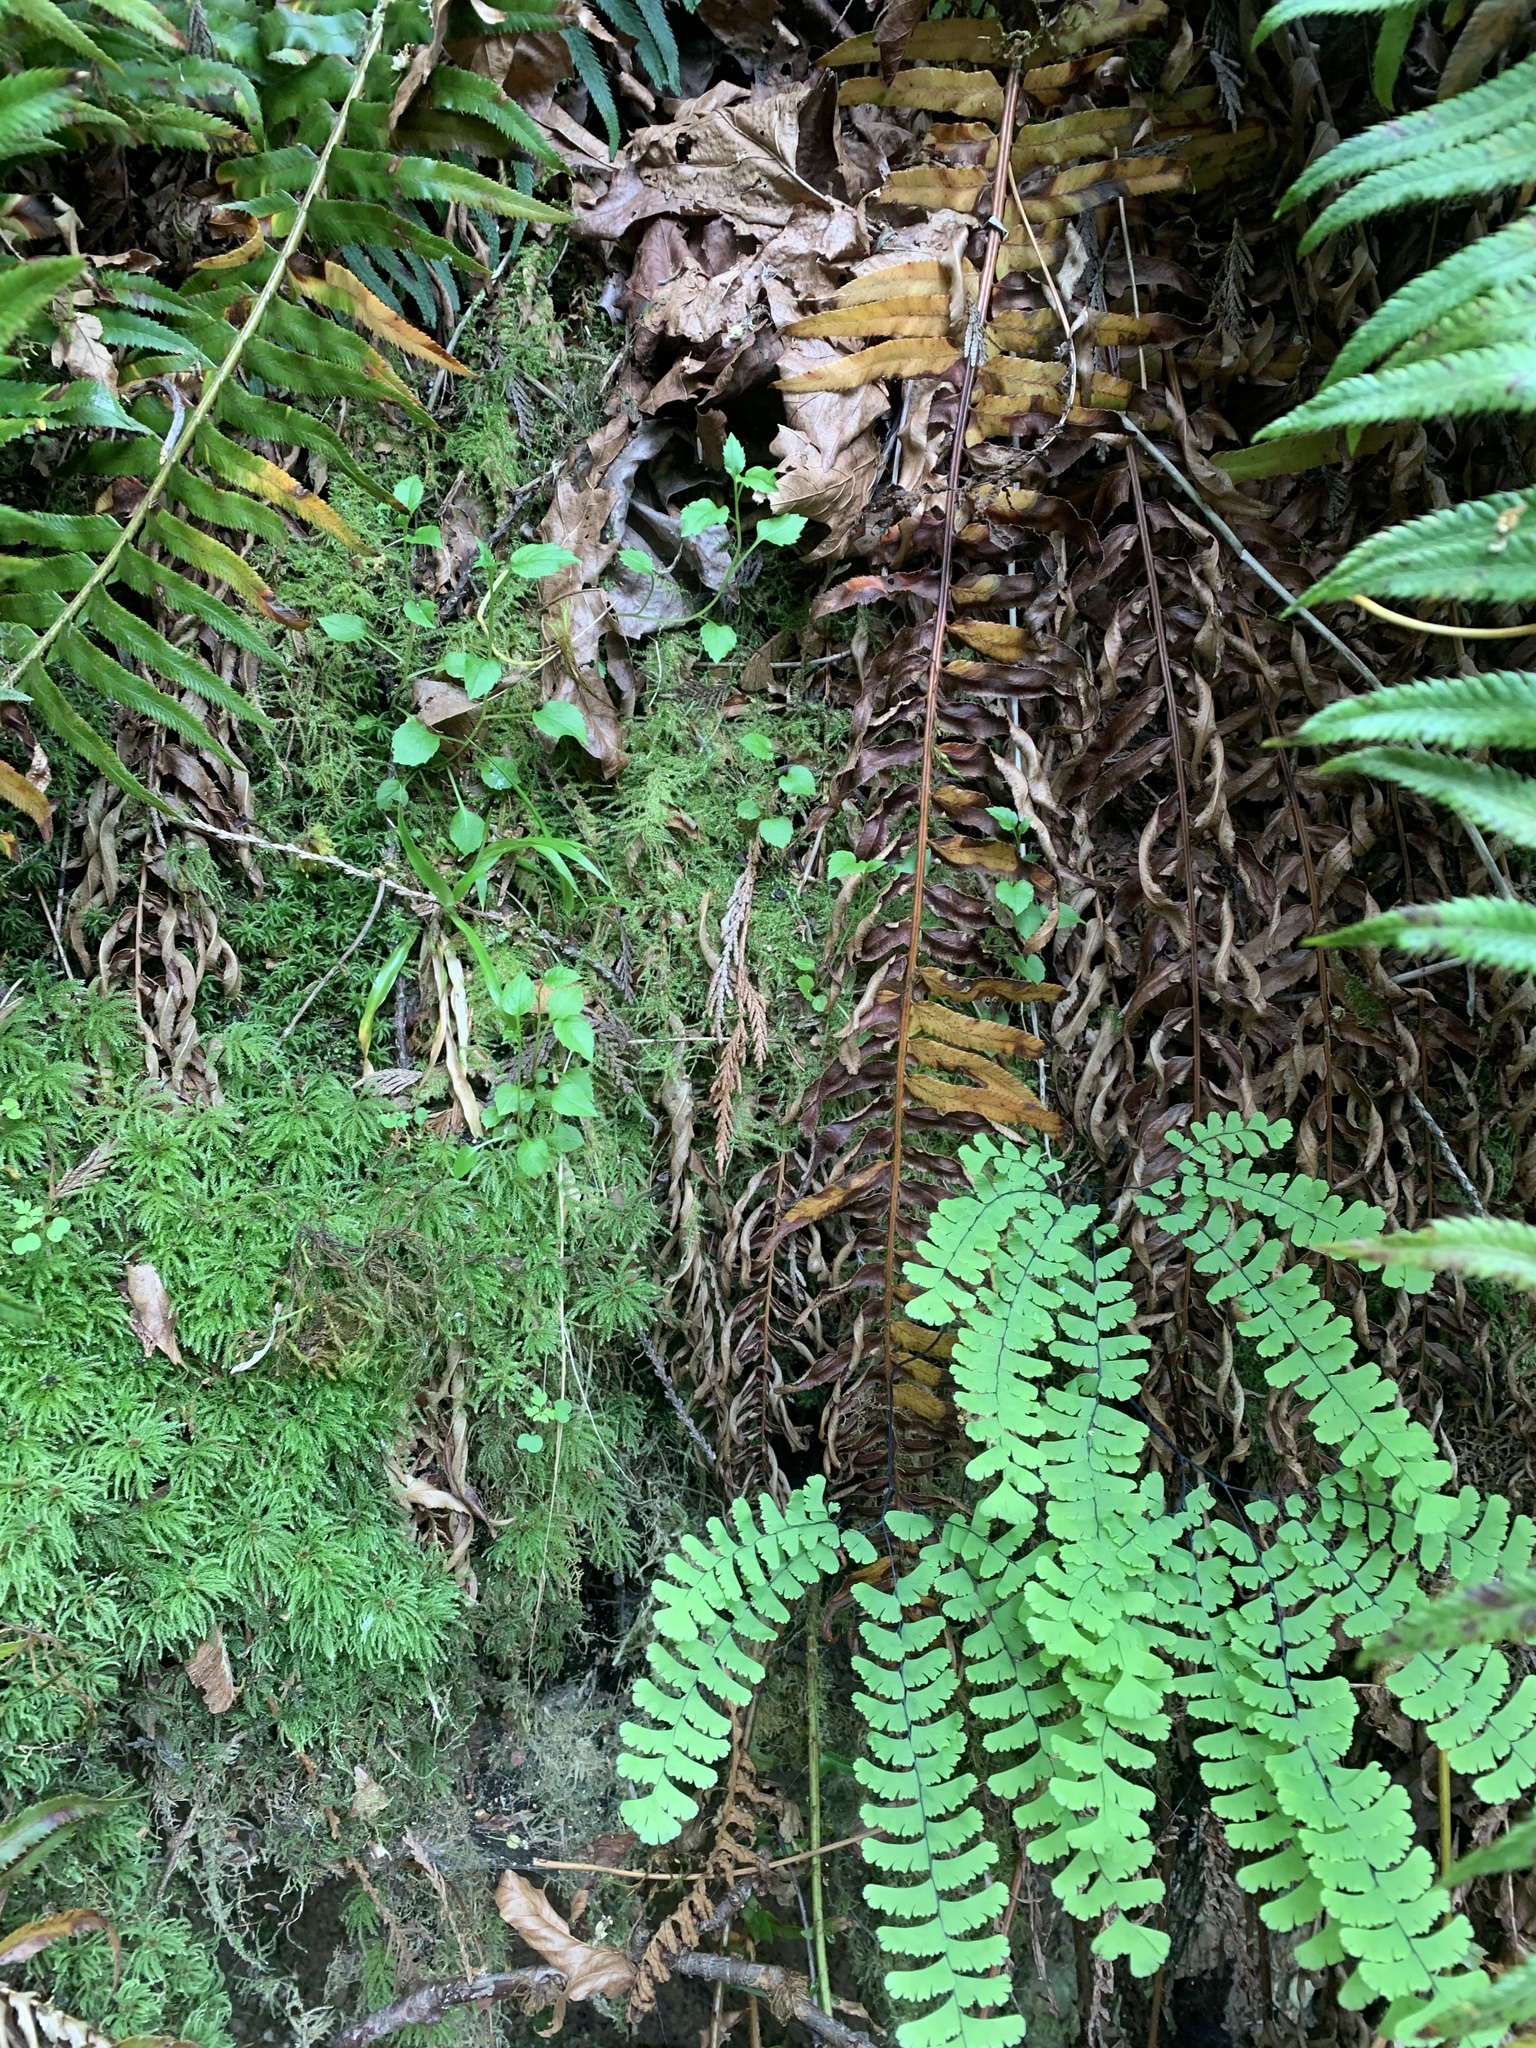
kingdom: Plantae
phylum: Tracheophyta
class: Magnoliopsida
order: Asterales
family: Campanulaceae
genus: Campanula
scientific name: Campanula scouleri
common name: Scouler's harebell
